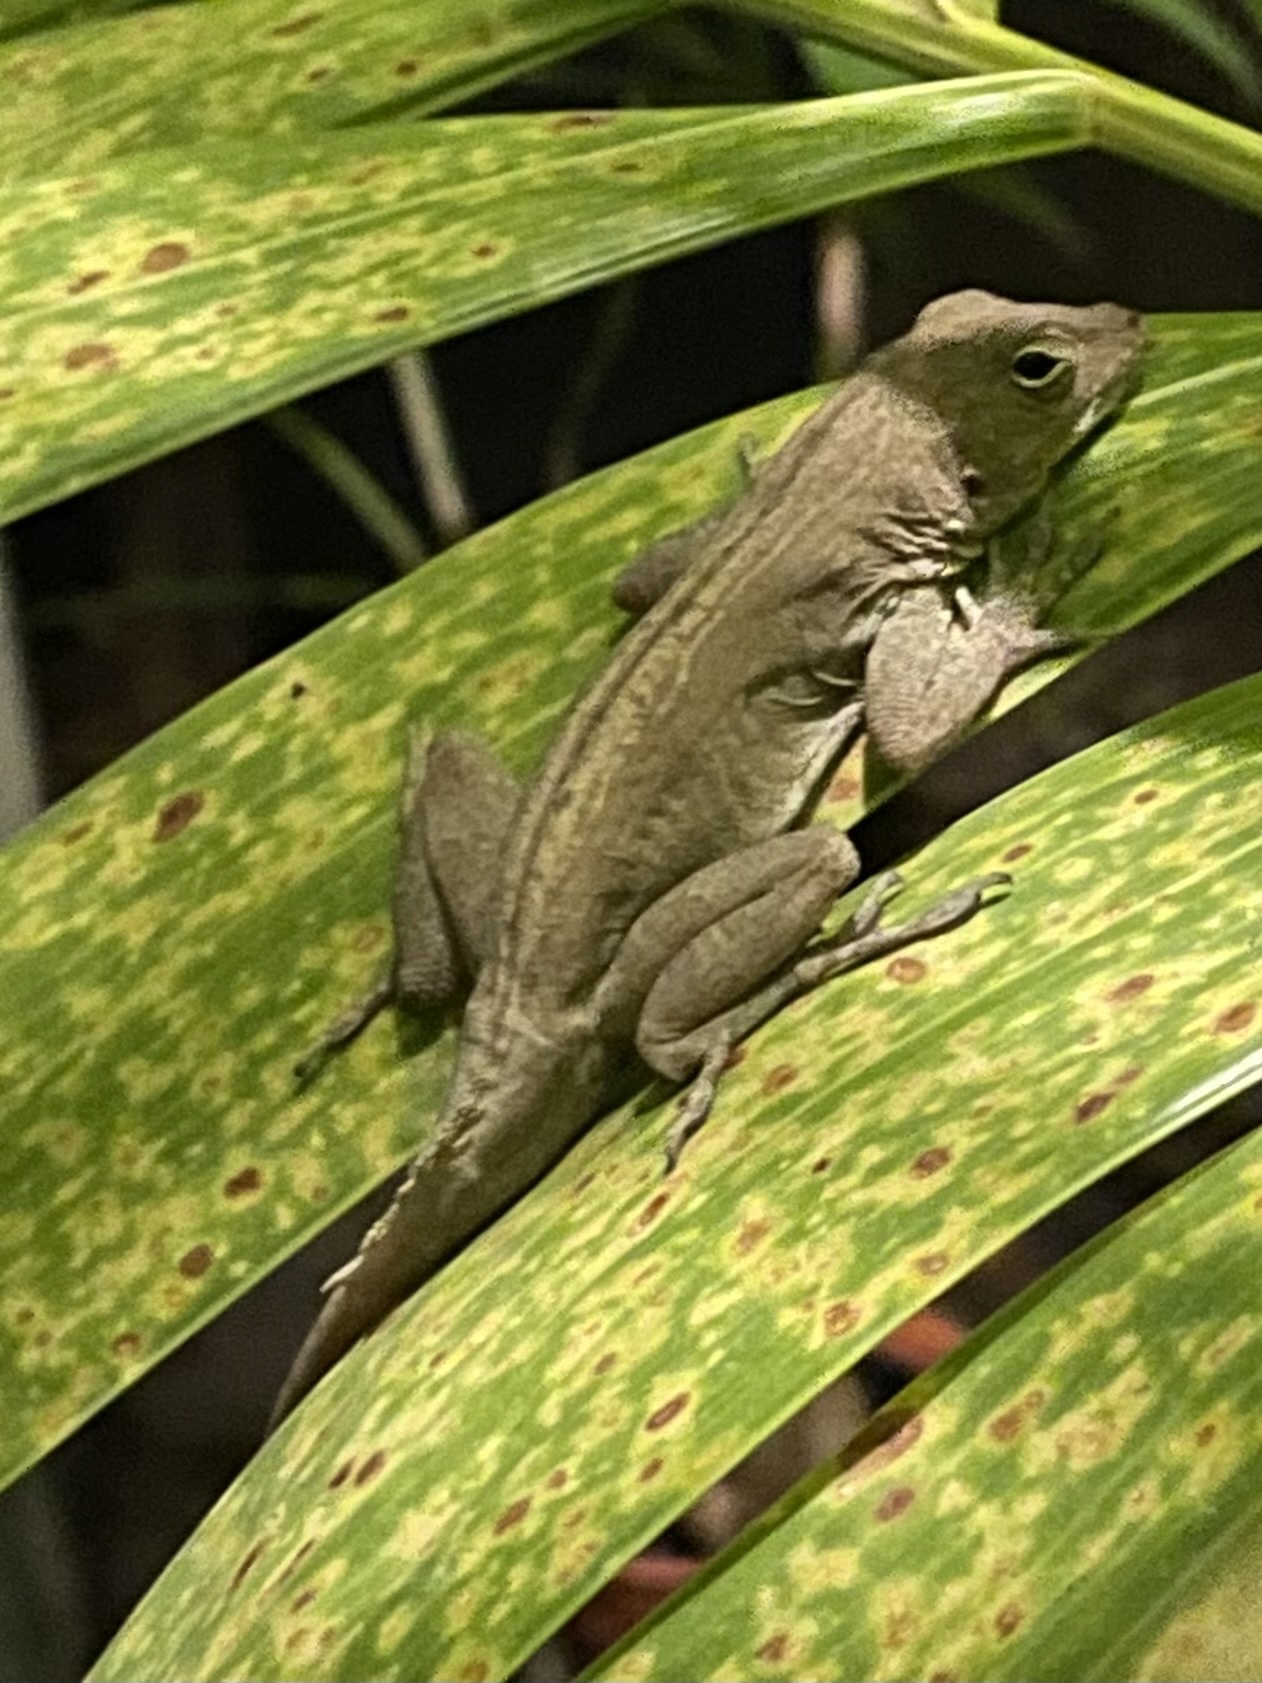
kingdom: Animalia
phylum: Chordata
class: Squamata
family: Dactyloidae
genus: Anolis
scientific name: Anolis cristatellus
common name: Crested anole
